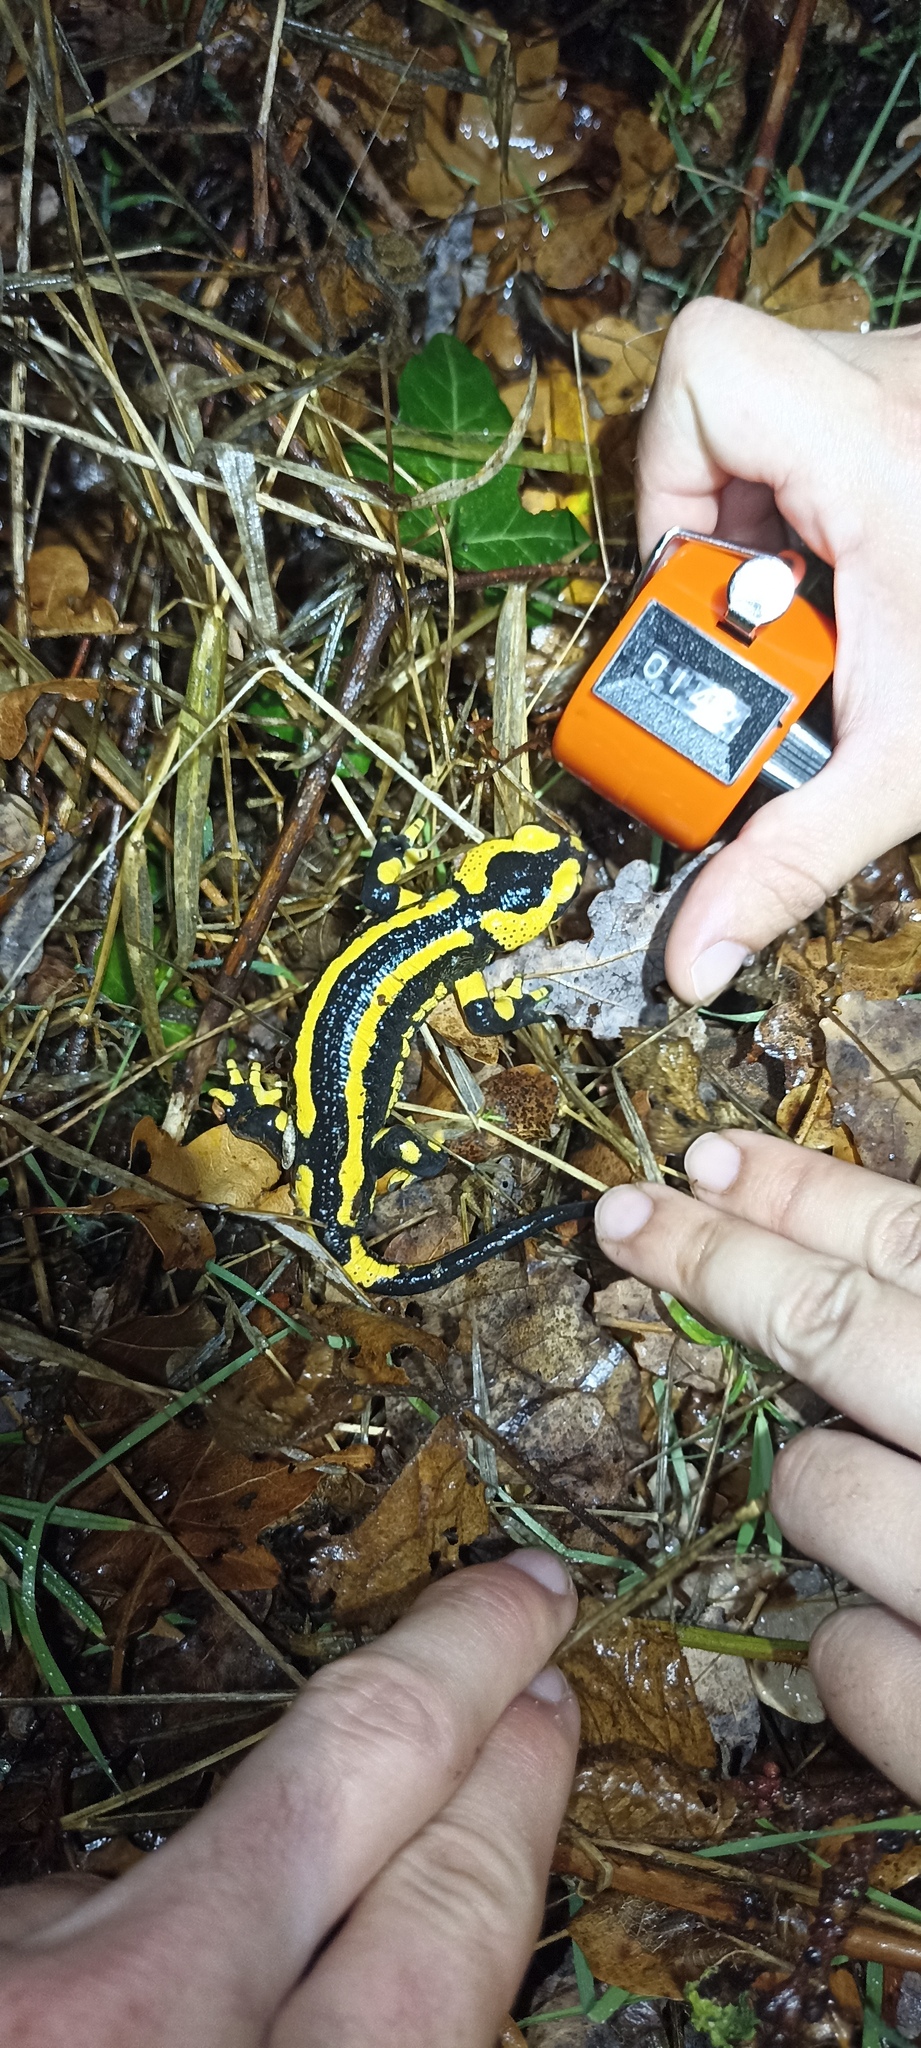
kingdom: Animalia
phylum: Chordata
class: Amphibia
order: Caudata
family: Salamandridae
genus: Salamandra
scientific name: Salamandra salamandra
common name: Fire salamander
